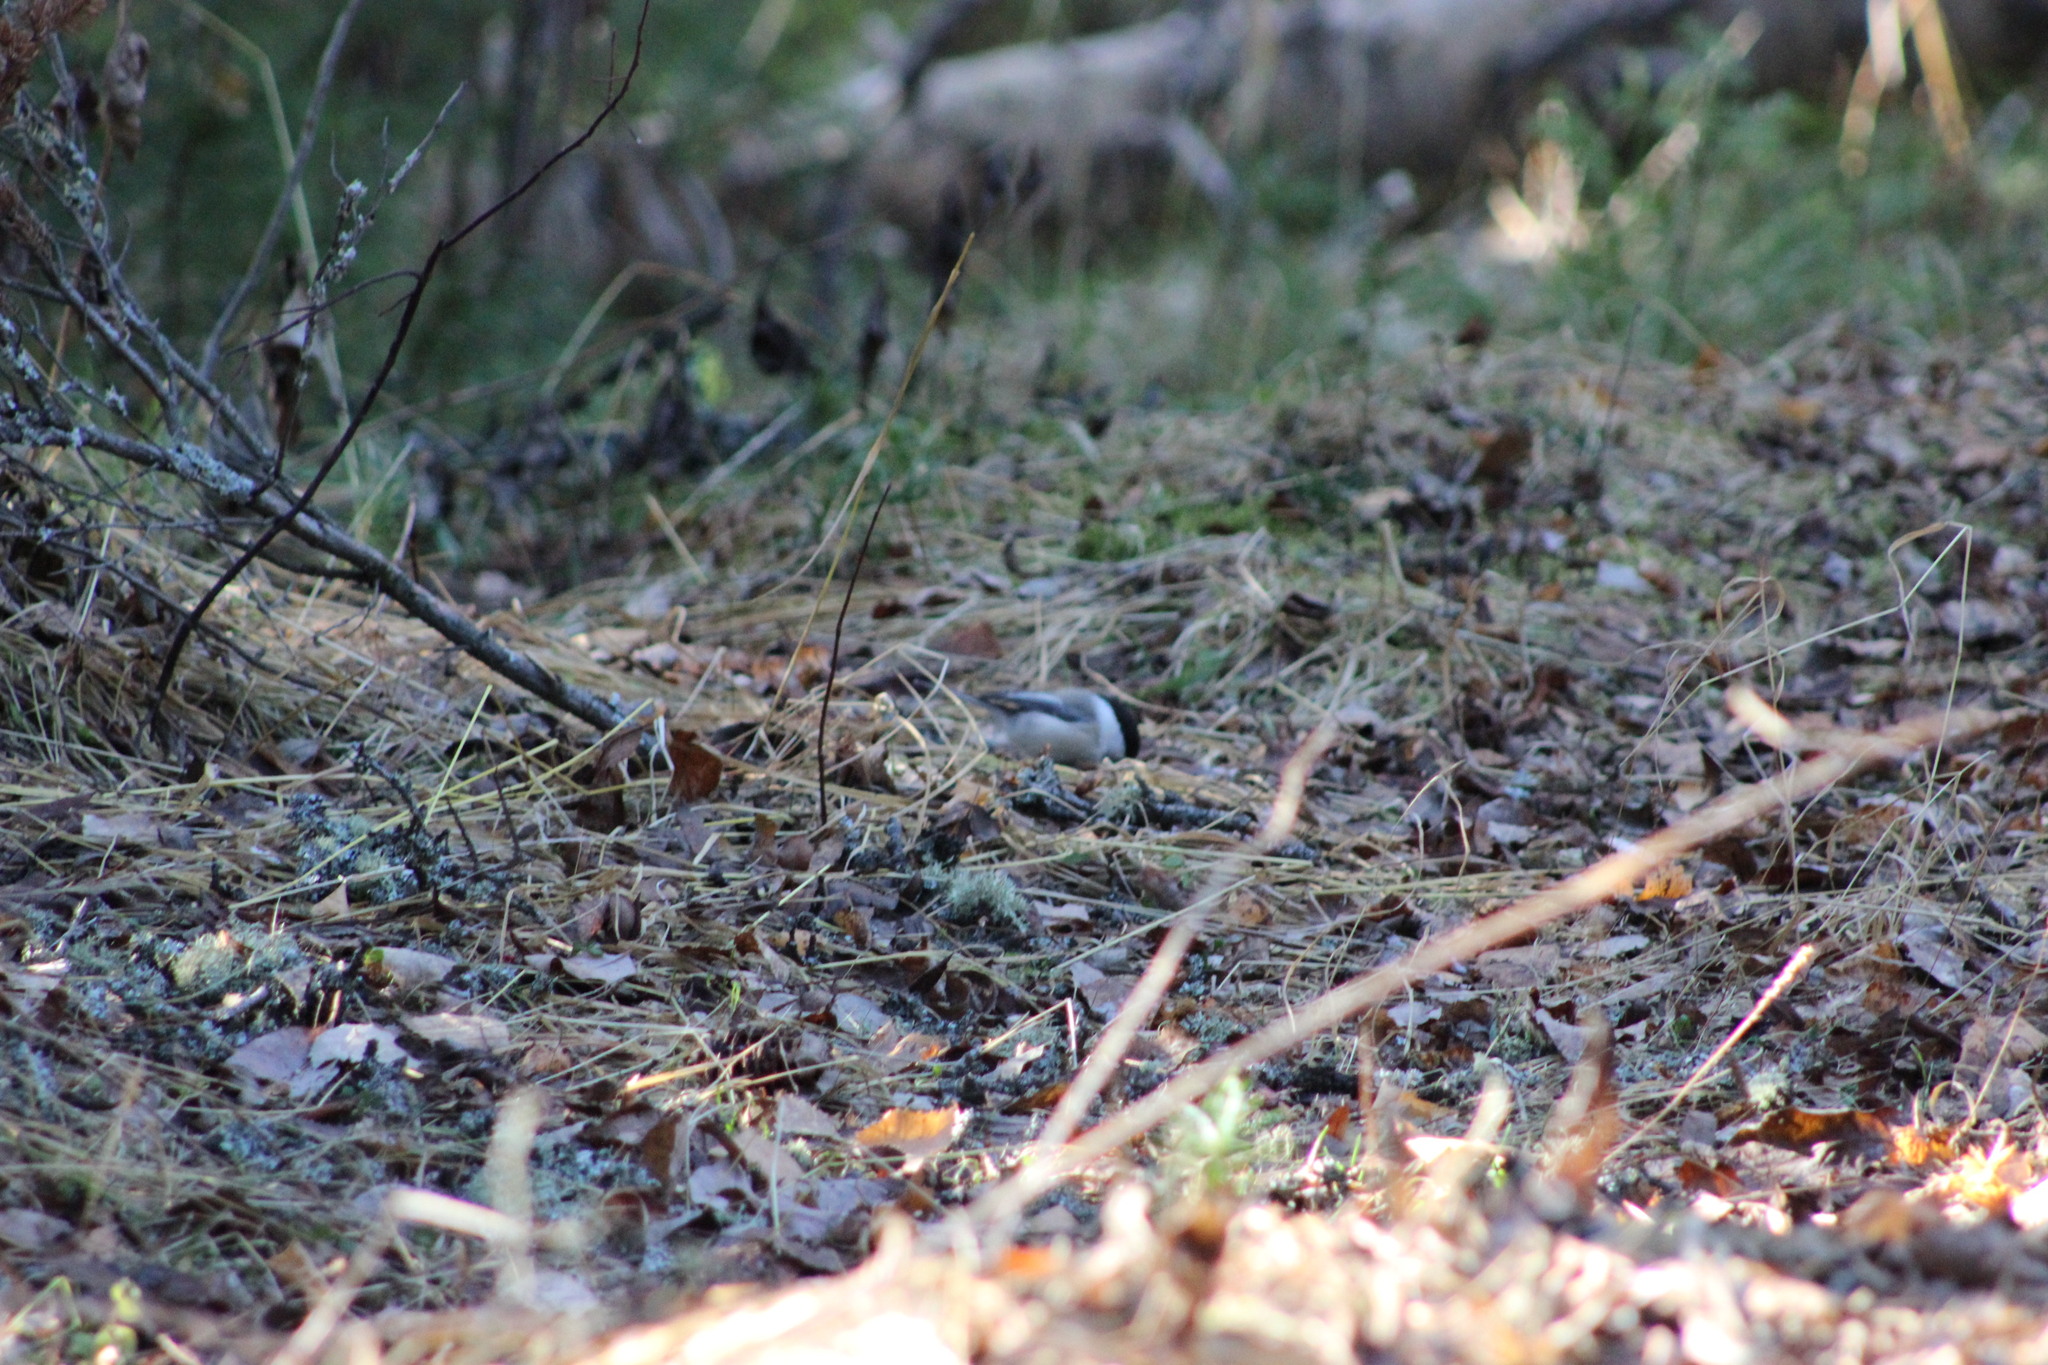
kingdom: Animalia
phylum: Chordata
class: Aves
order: Passeriformes
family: Paridae
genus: Poecile
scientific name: Poecile montanus
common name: Willow tit
